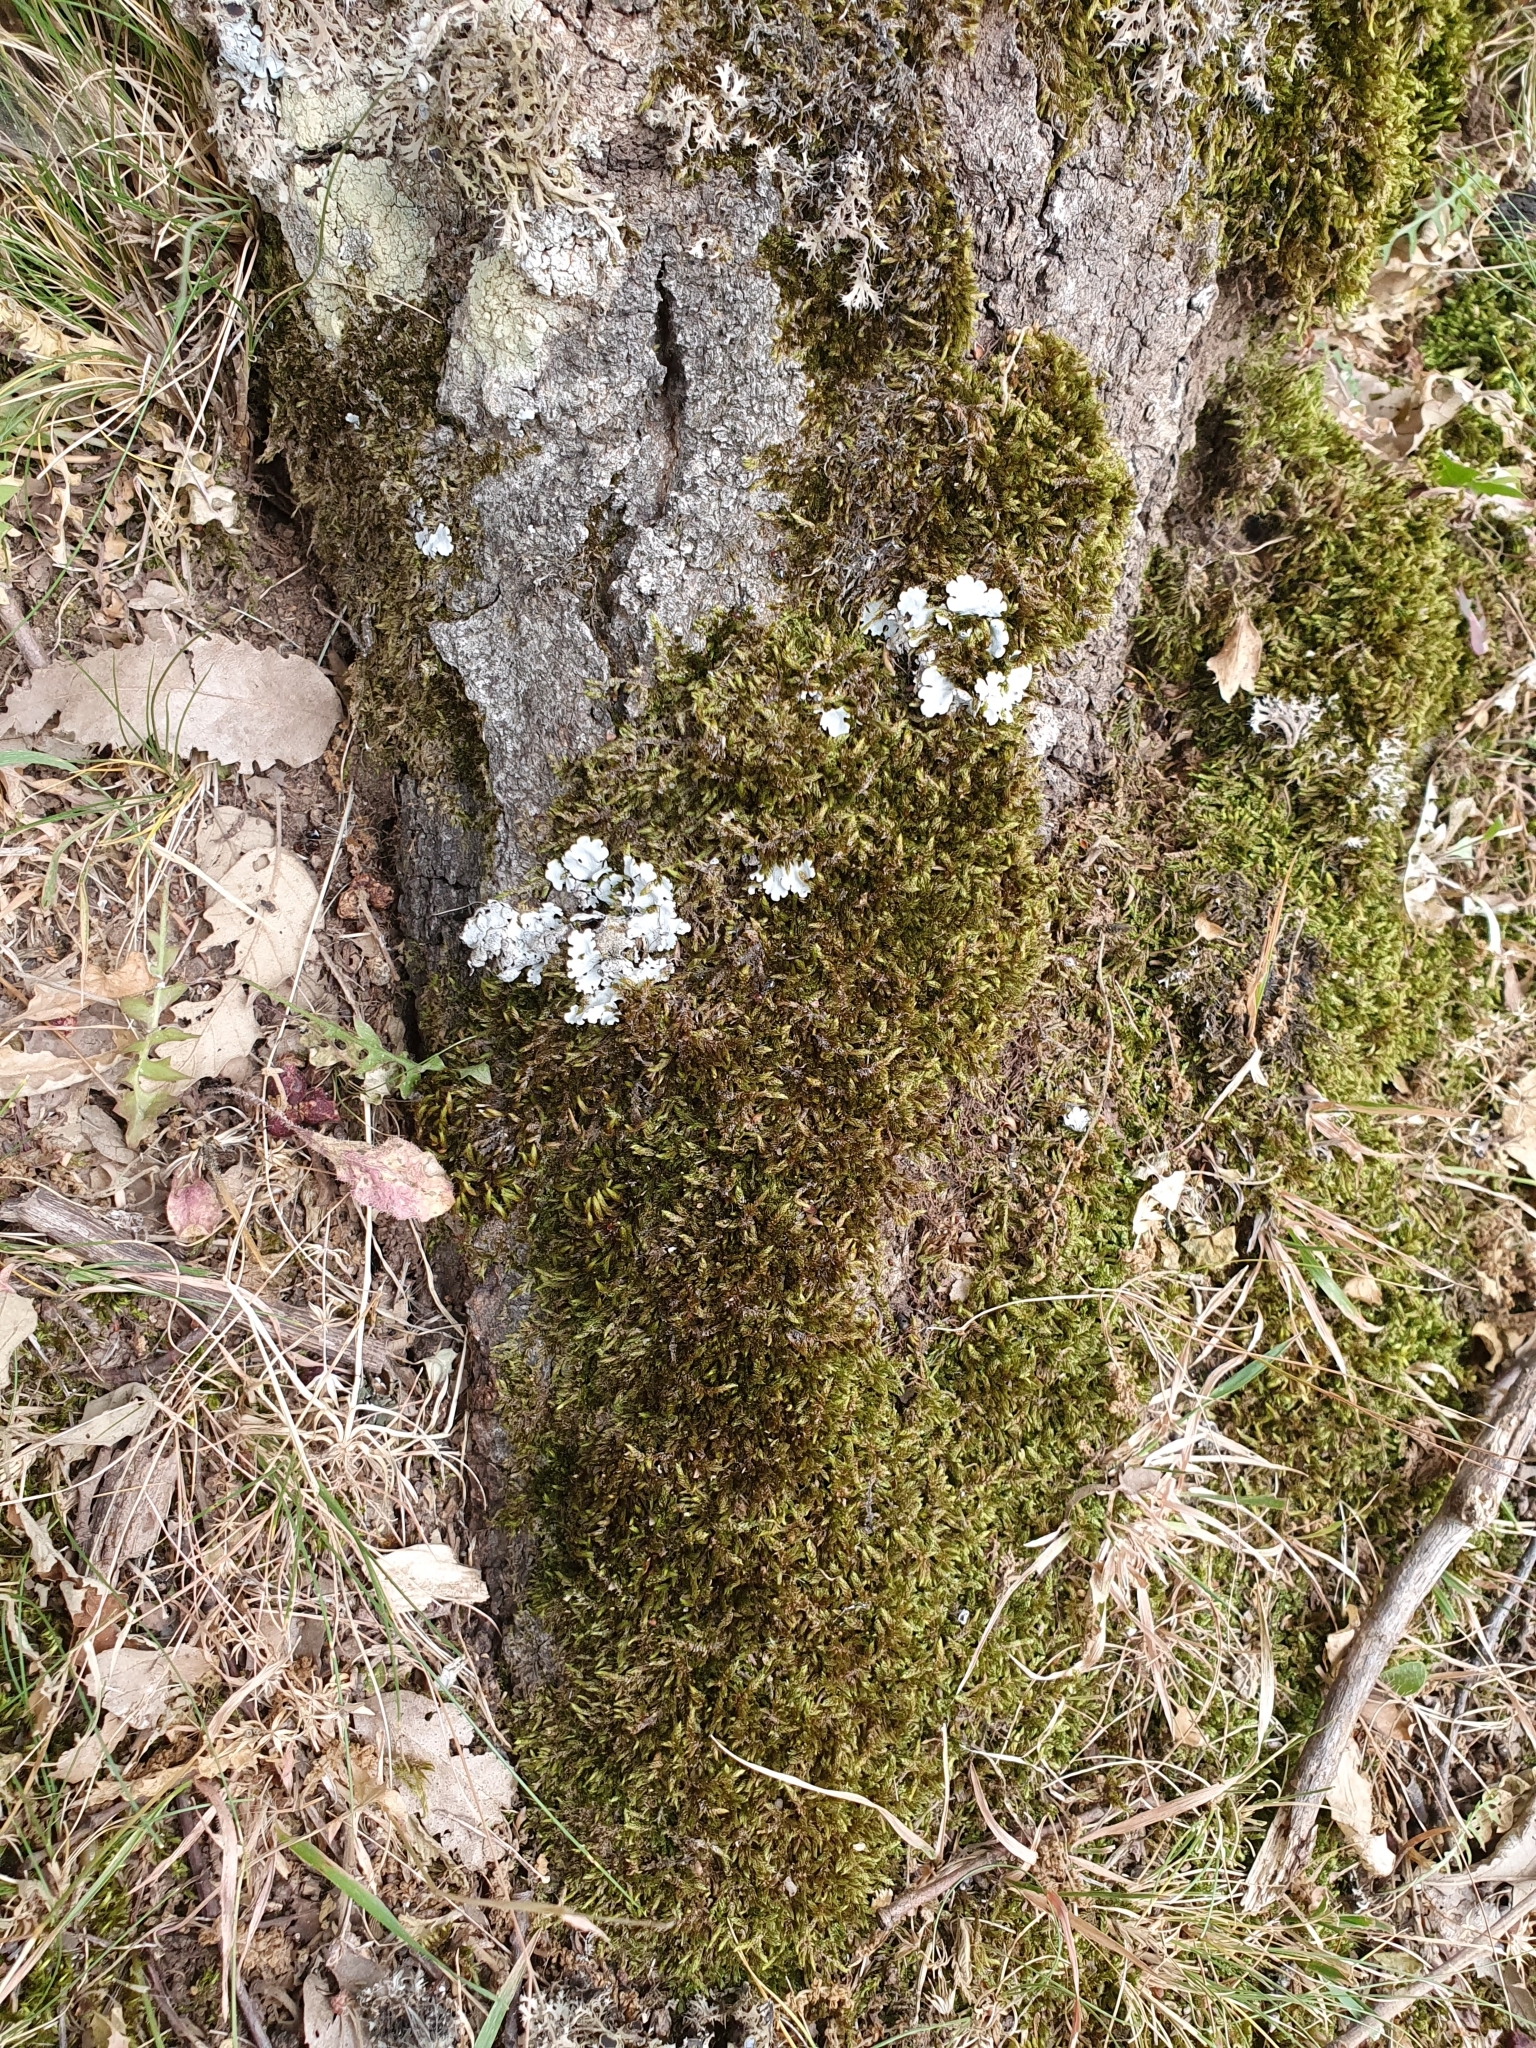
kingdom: Fungi
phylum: Ascomycota
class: Lecanoromycetes
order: Lecanorales
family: Parmeliaceae
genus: Parmelina
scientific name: Parmelina tiliacea
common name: Linden shield lichen
